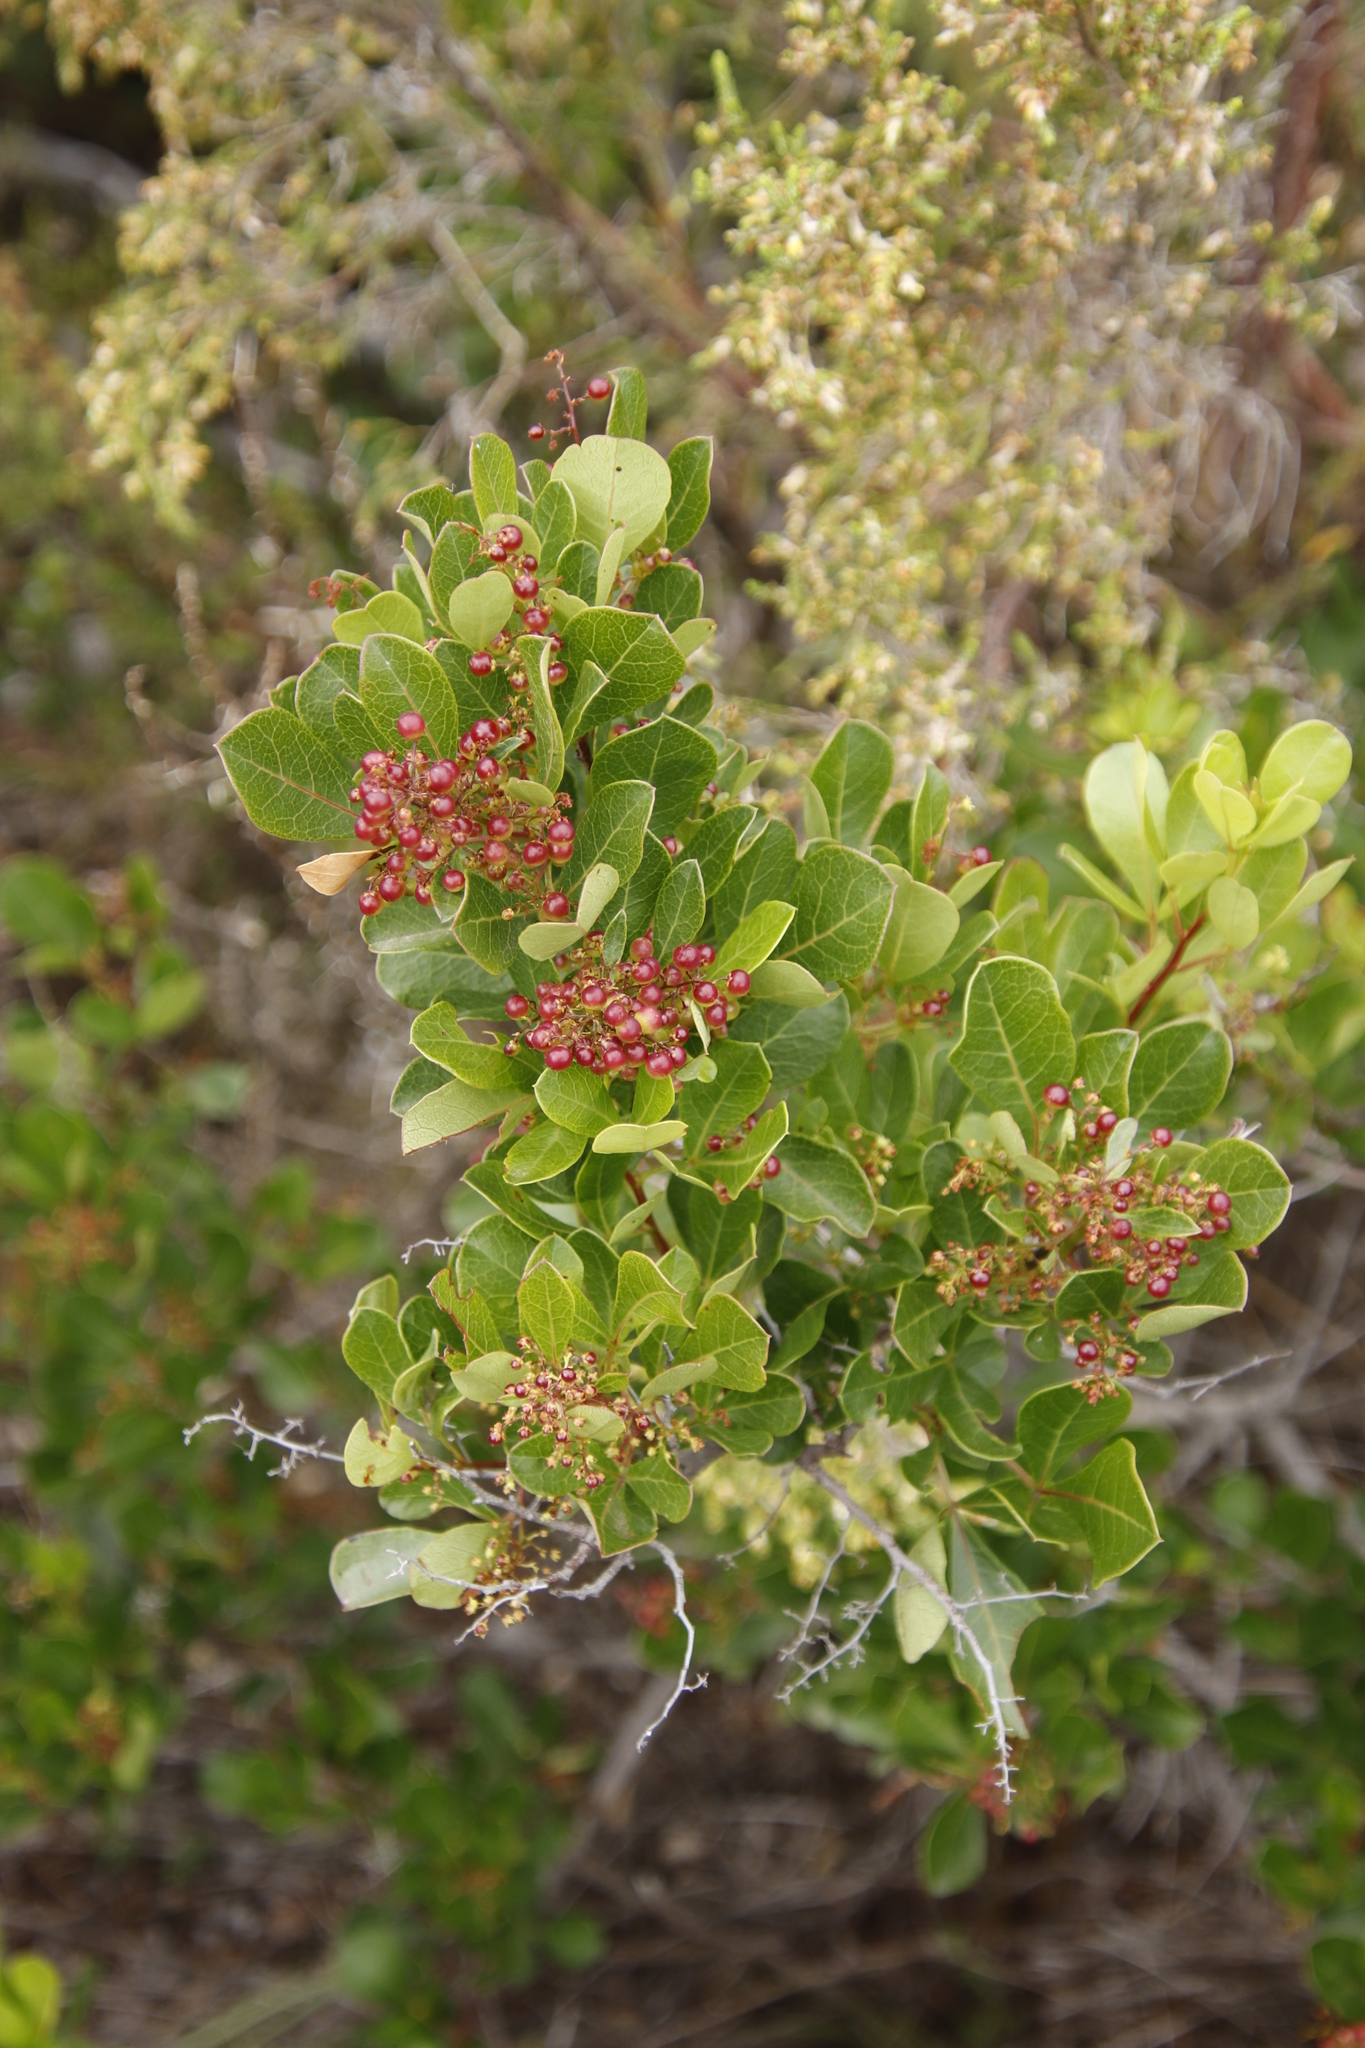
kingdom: Plantae
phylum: Tracheophyta
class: Magnoliopsida
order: Sapindales
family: Anacardiaceae
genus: Searsia
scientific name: Searsia laevigata
